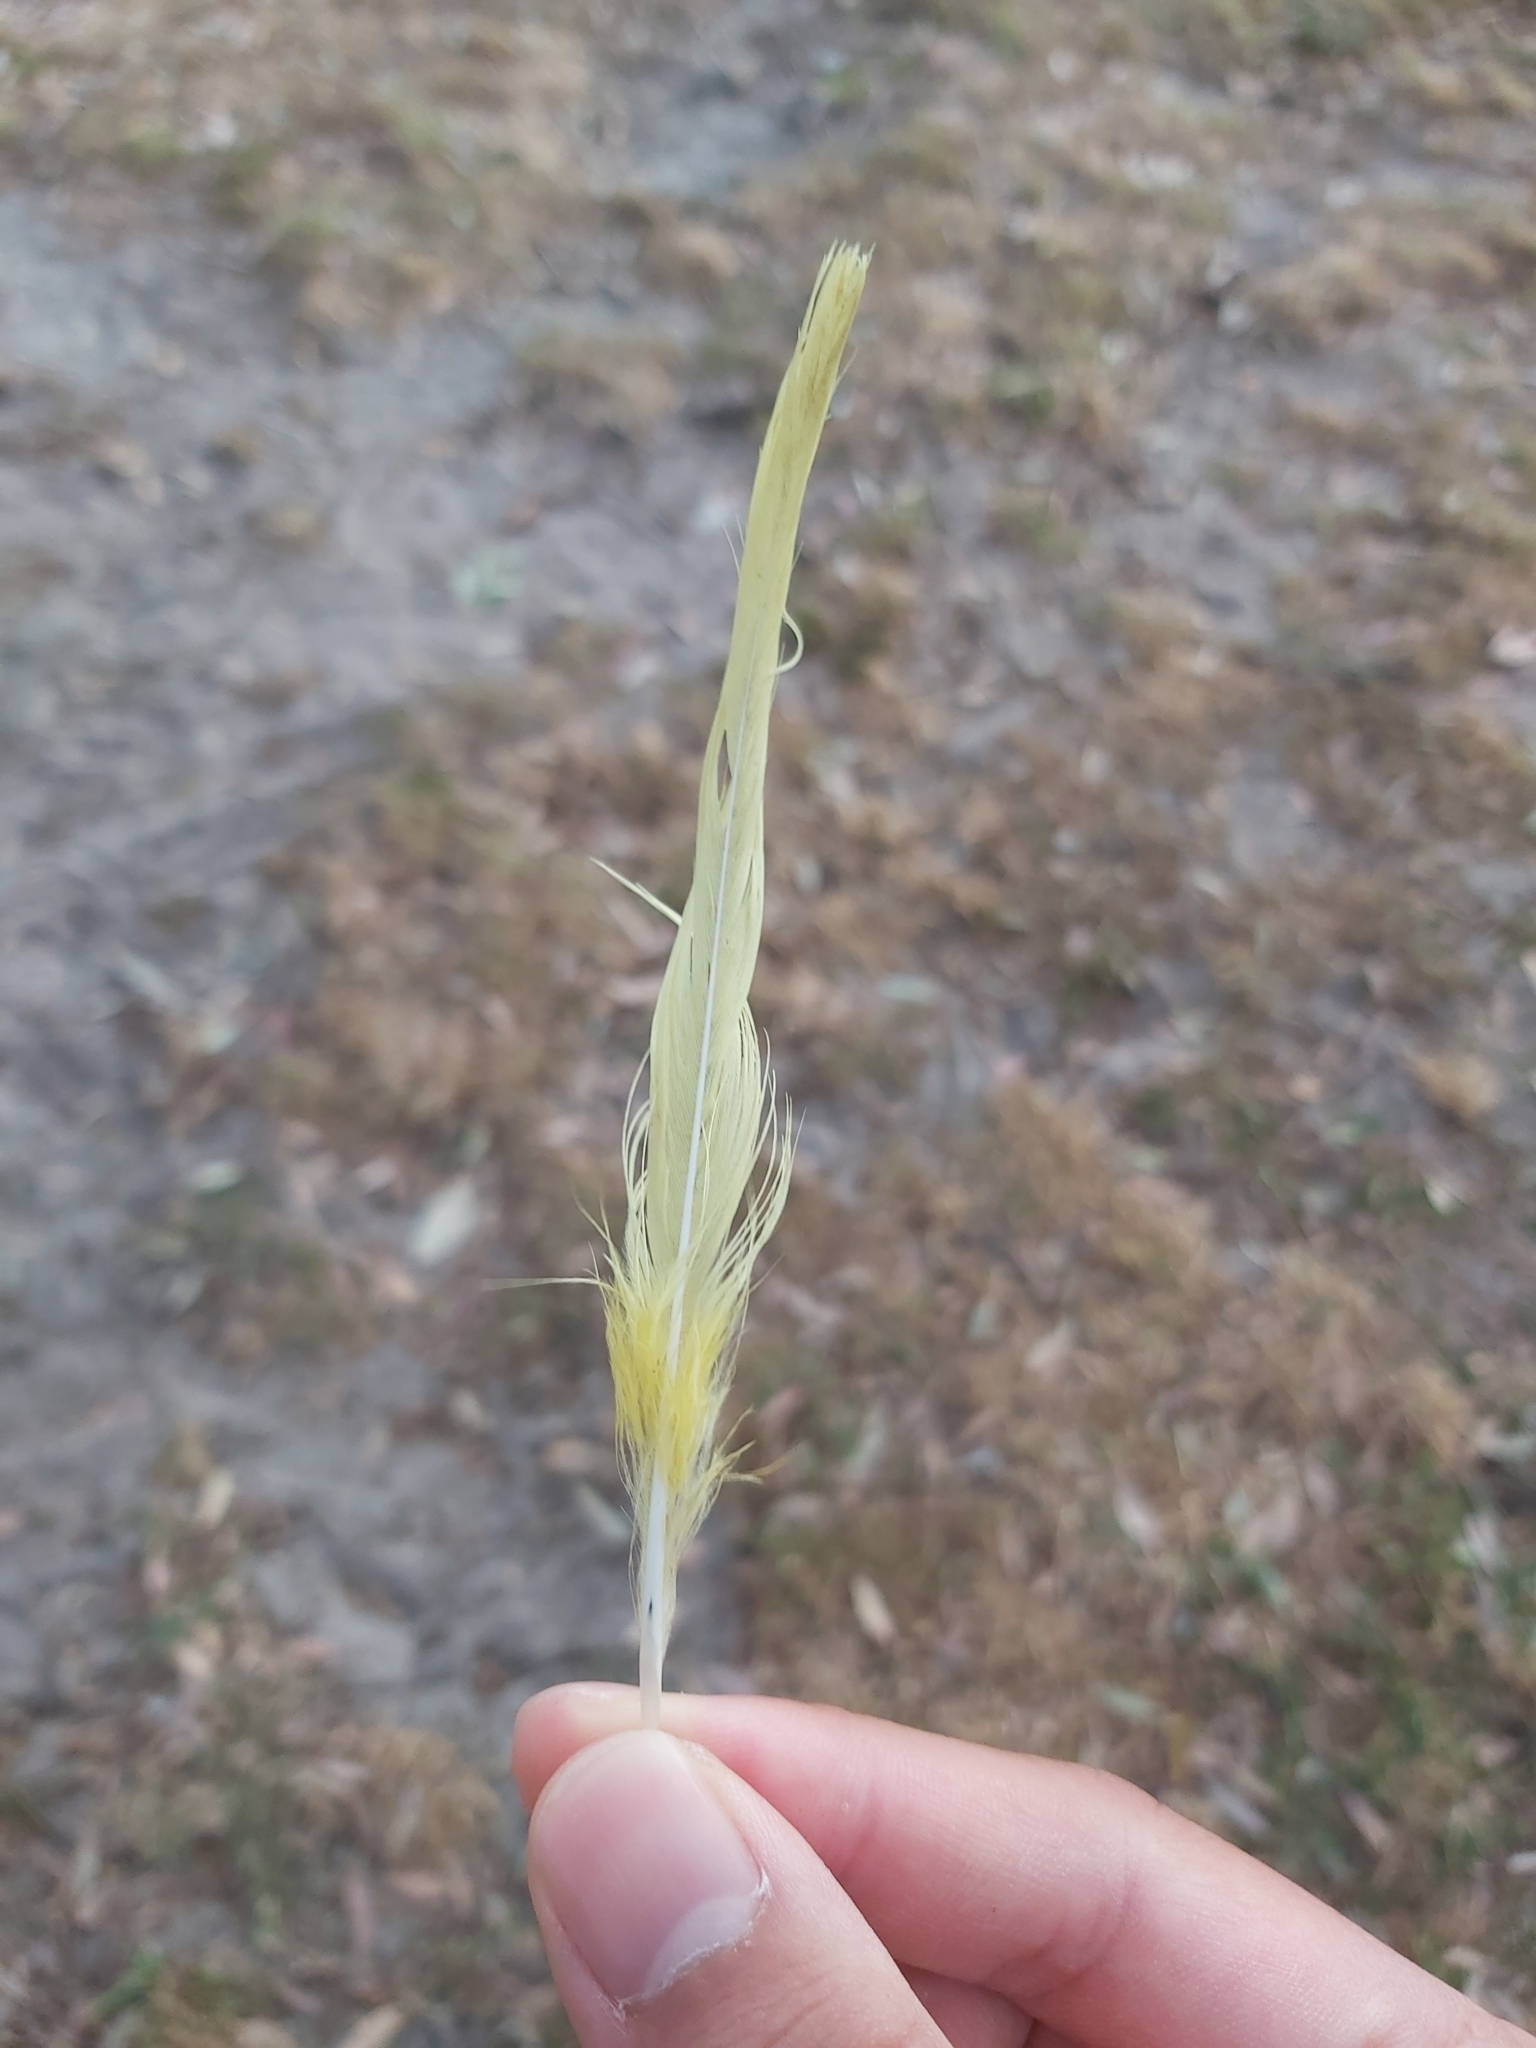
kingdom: Animalia
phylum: Chordata
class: Aves
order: Psittaciformes
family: Psittacidae
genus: Cacatua
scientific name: Cacatua galerita
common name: Sulphur-crested cockatoo
